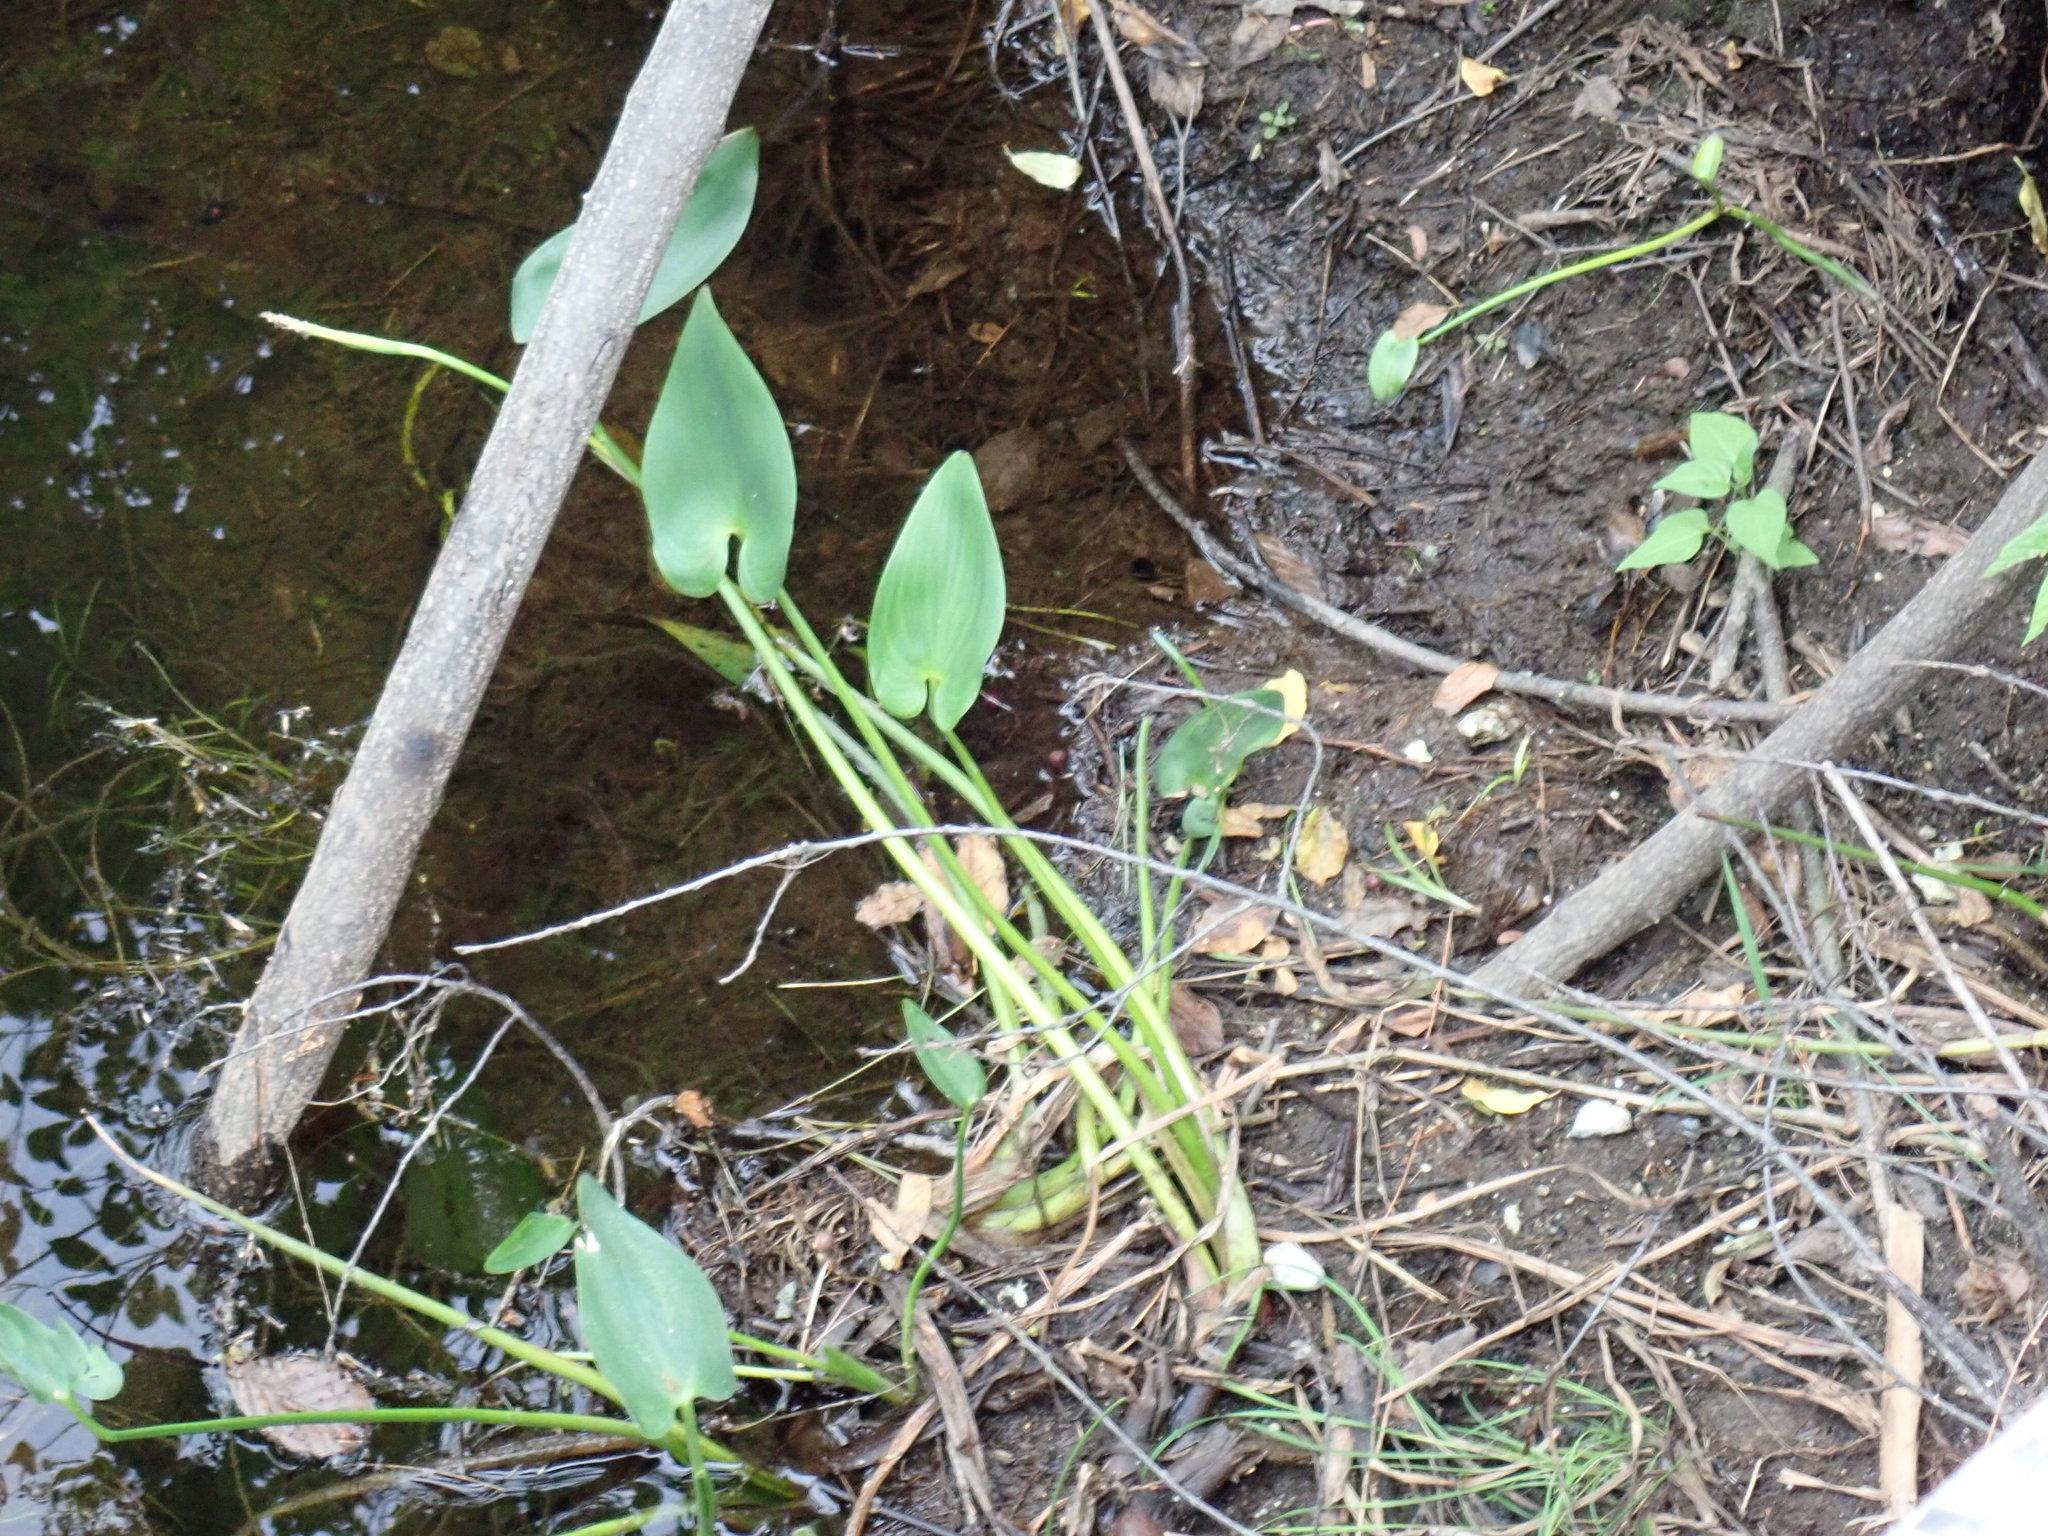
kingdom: Plantae
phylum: Tracheophyta
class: Liliopsida
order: Commelinales
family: Pontederiaceae
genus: Pontederia
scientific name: Pontederia cordata
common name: Pickerelweed
